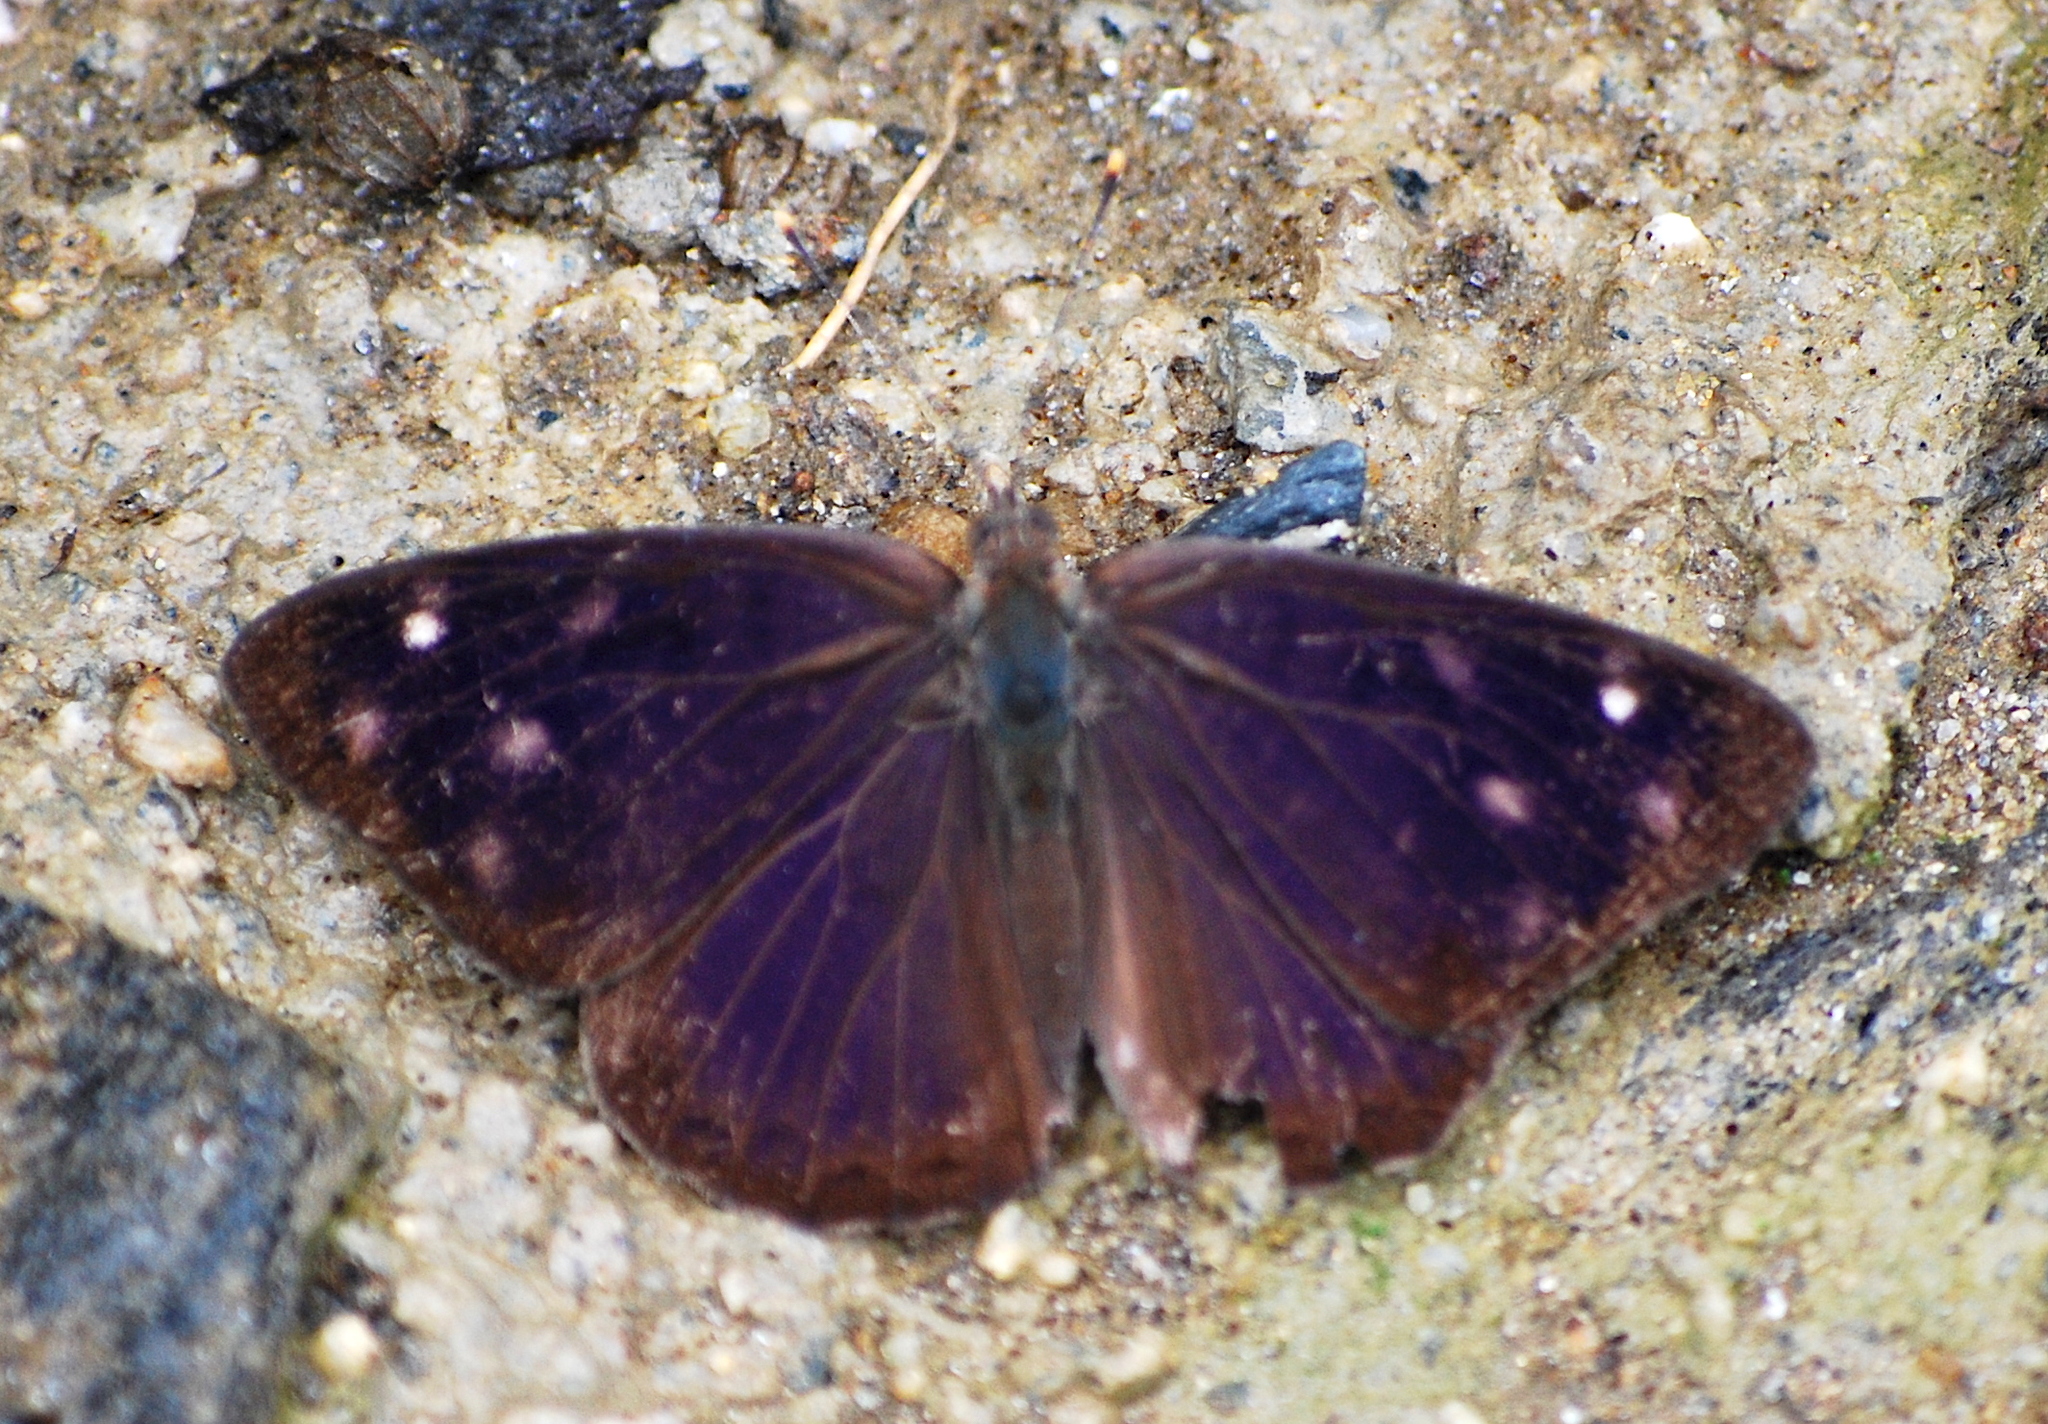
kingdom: Animalia
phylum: Arthropoda
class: Insecta
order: Lepidoptera
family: Nymphalidae
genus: Eunica
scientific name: Eunica monima
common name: Dingy purplewing
